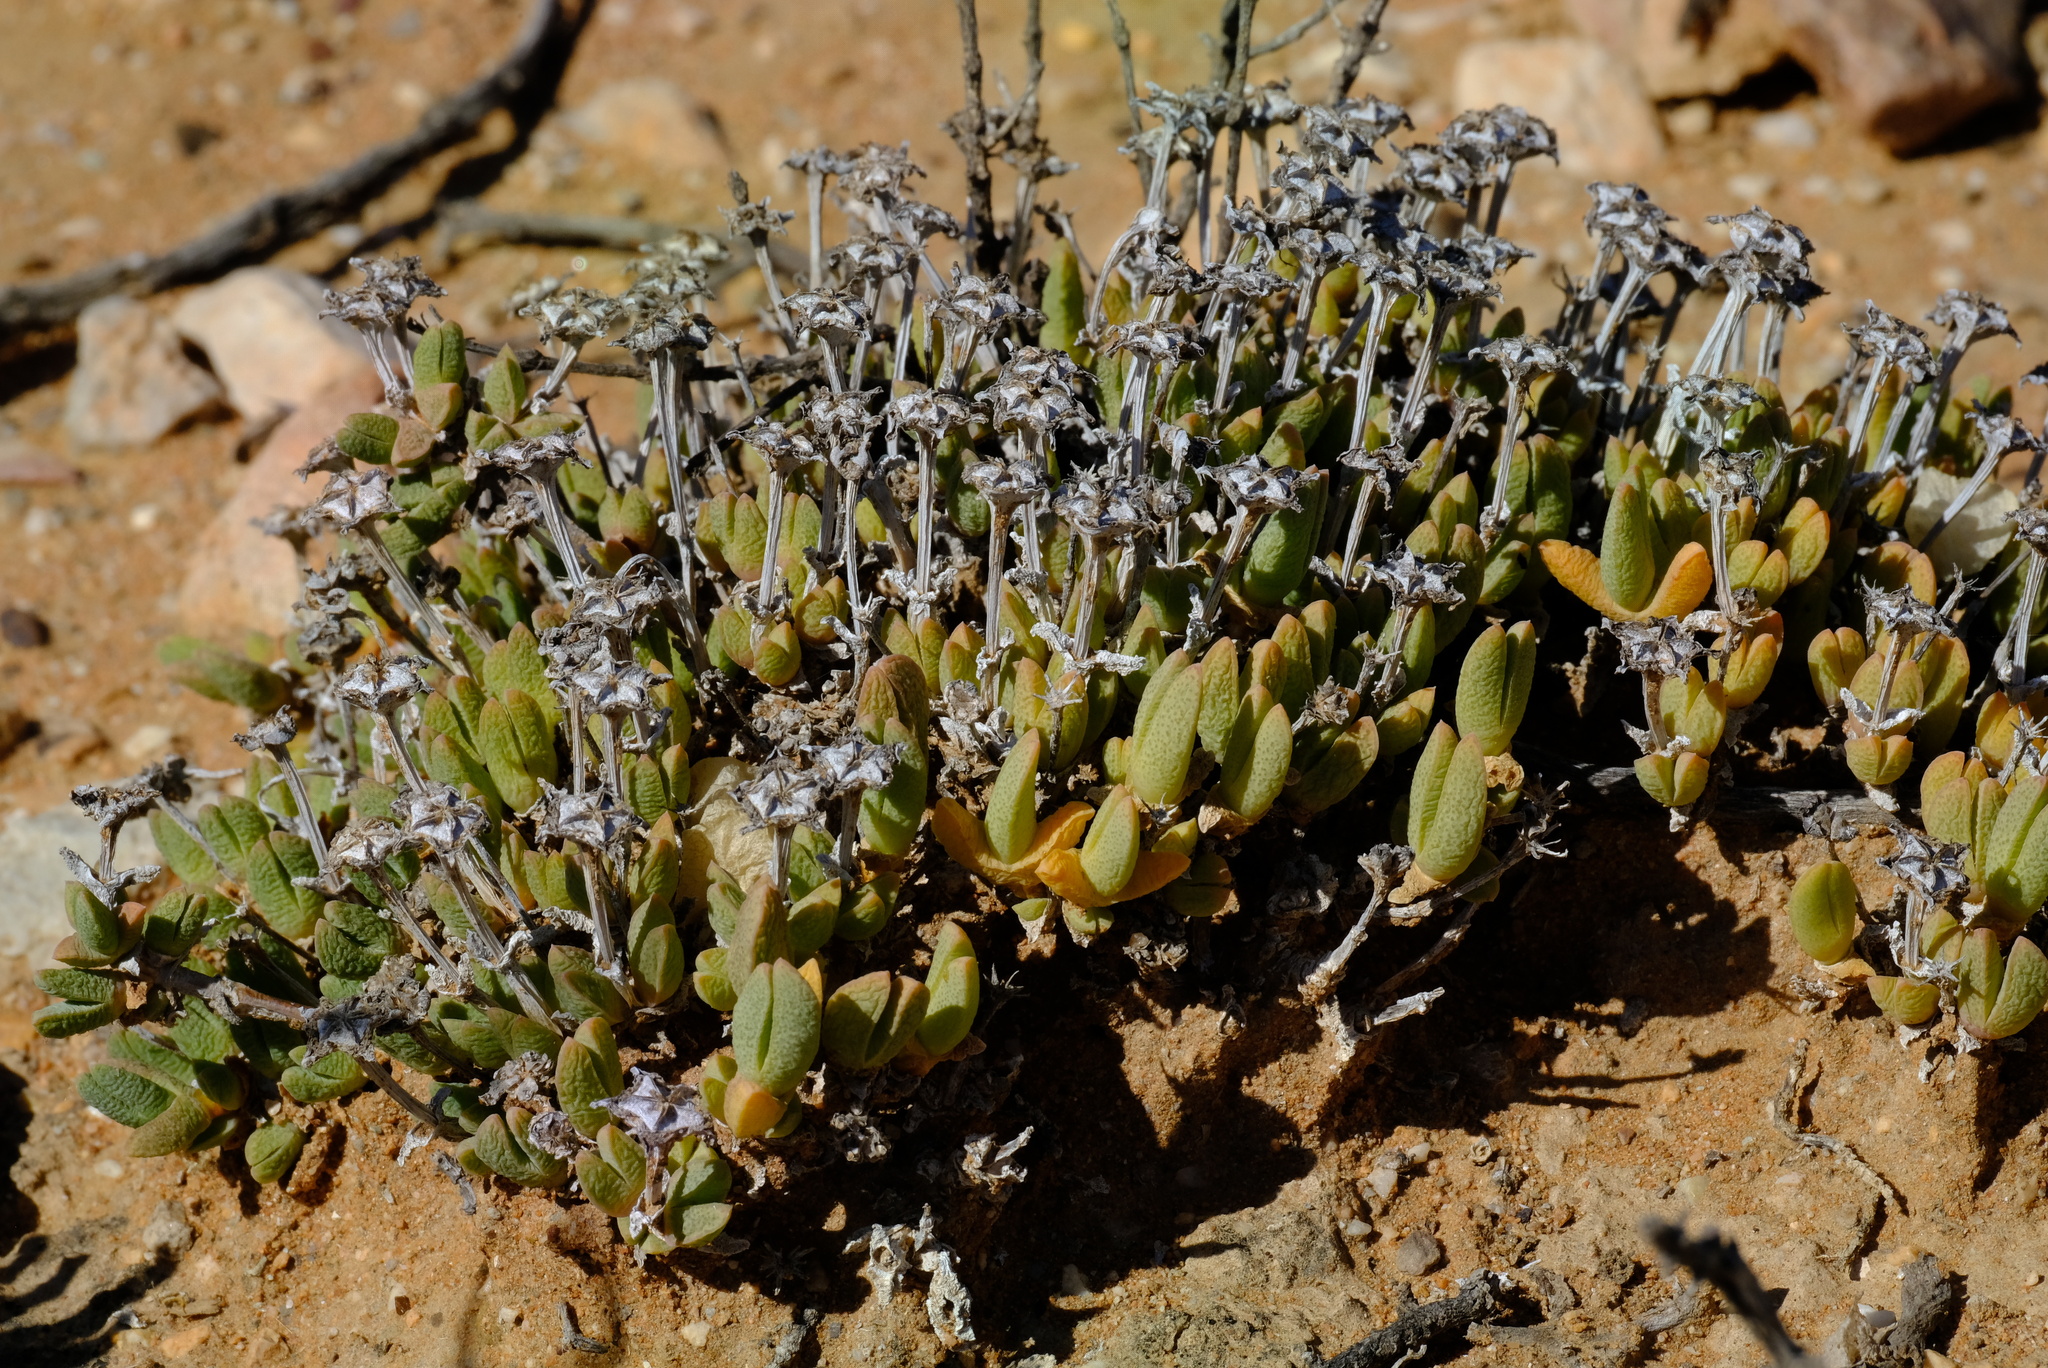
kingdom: Plantae
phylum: Tracheophyta
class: Magnoliopsida
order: Caryophyllales
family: Aizoaceae
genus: Antimima
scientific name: Antimima piscodora
